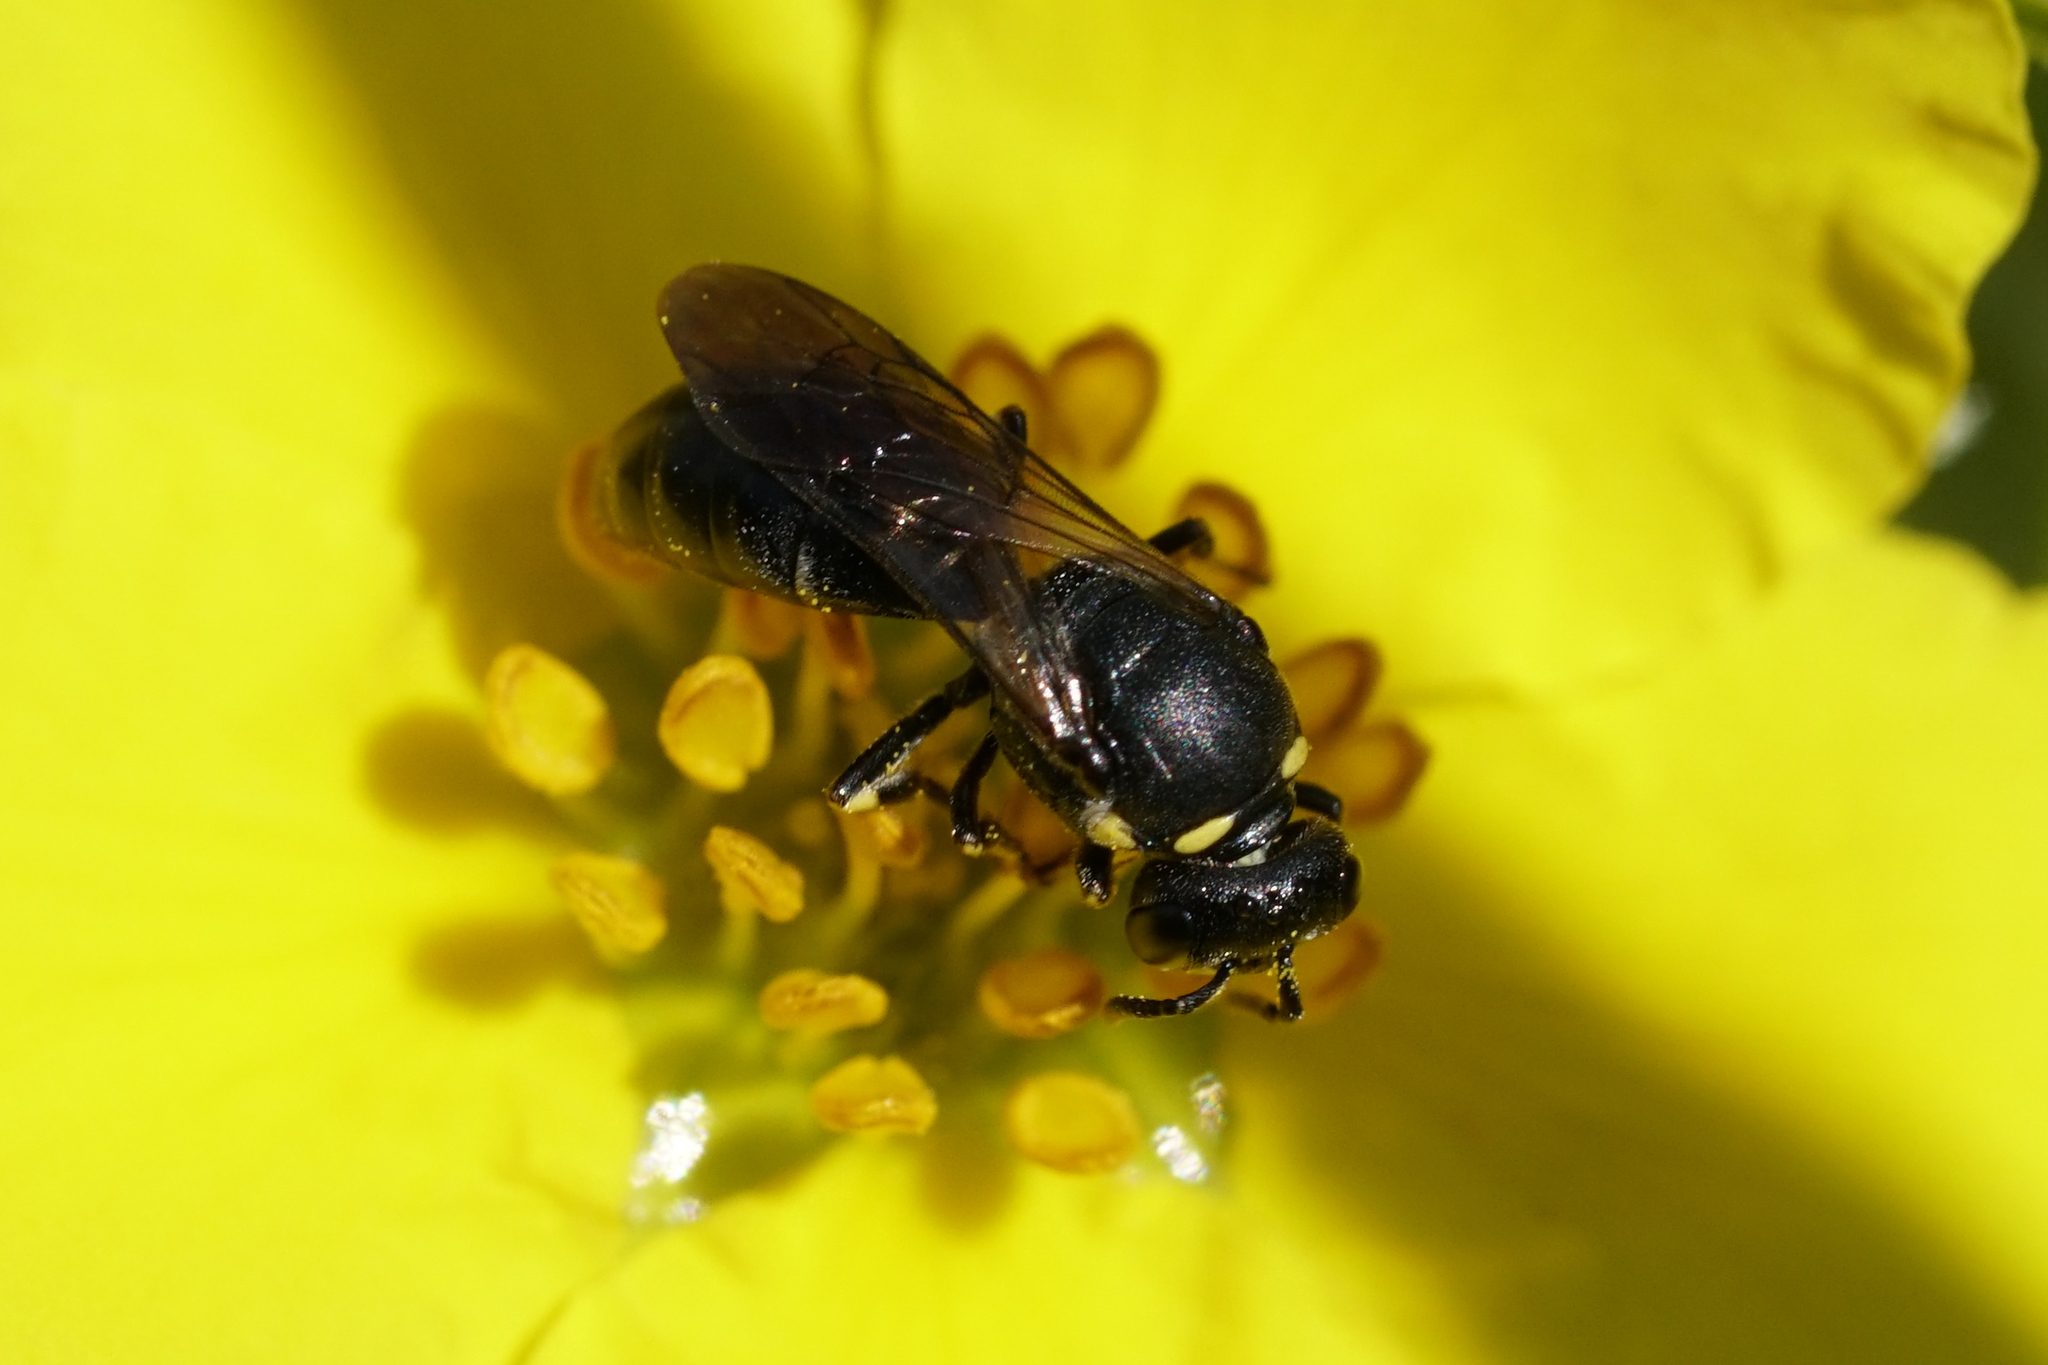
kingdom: Animalia
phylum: Arthropoda
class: Insecta
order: Hymenoptera
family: Colletidae
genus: Hylaeus
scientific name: Hylaeus modestus
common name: Yellow-faced bee
